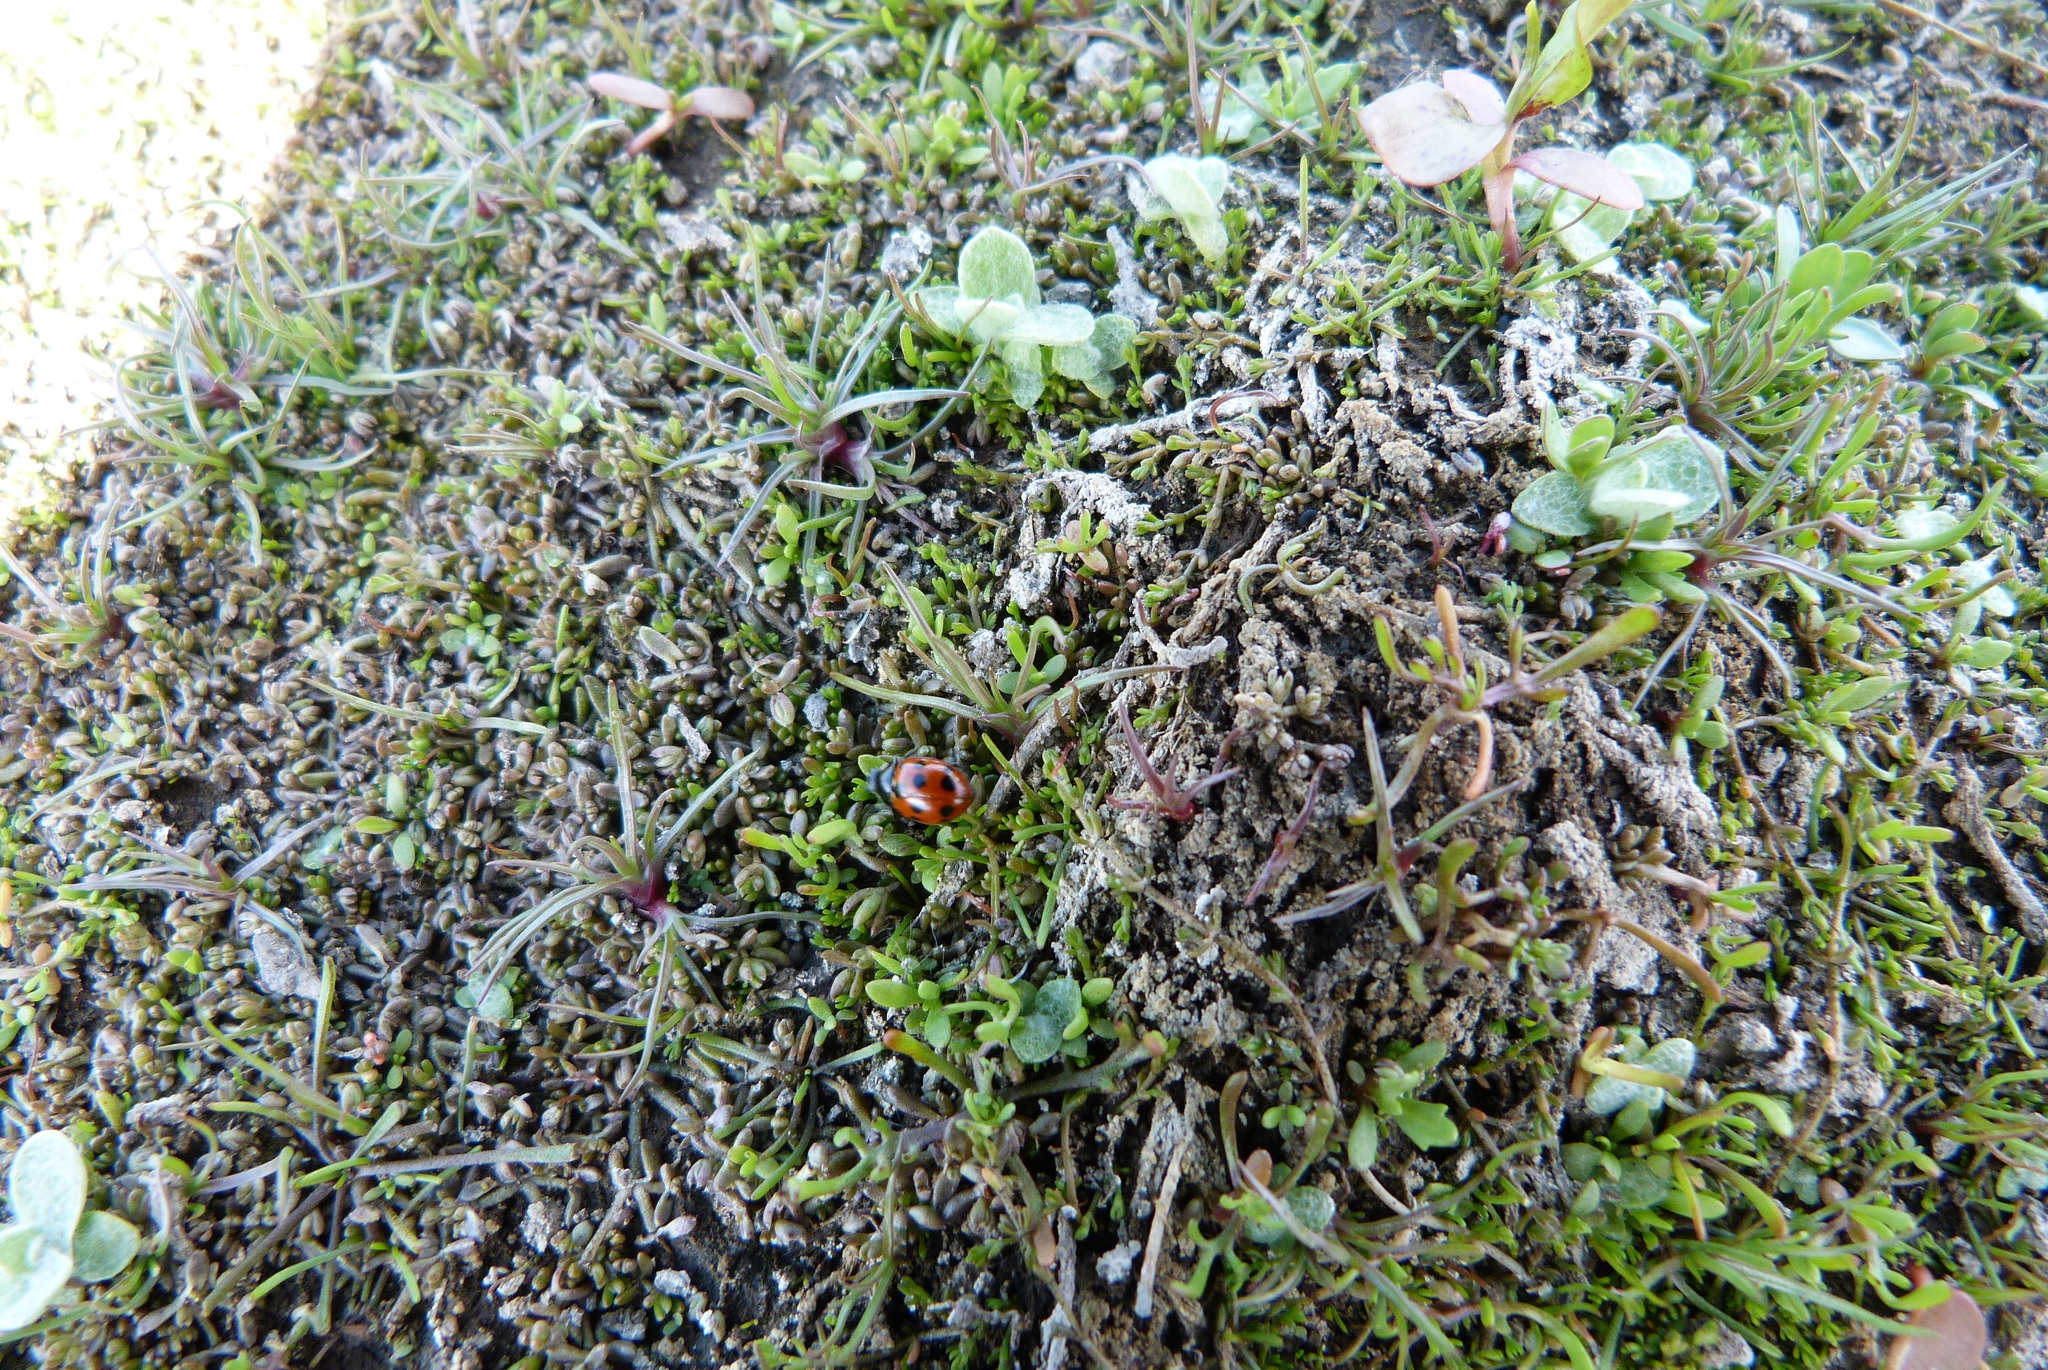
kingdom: Plantae
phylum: Tracheophyta
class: Magnoliopsida
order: Saxifragales
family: Crassulaceae
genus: Crassula
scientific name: Crassula sinclairii
